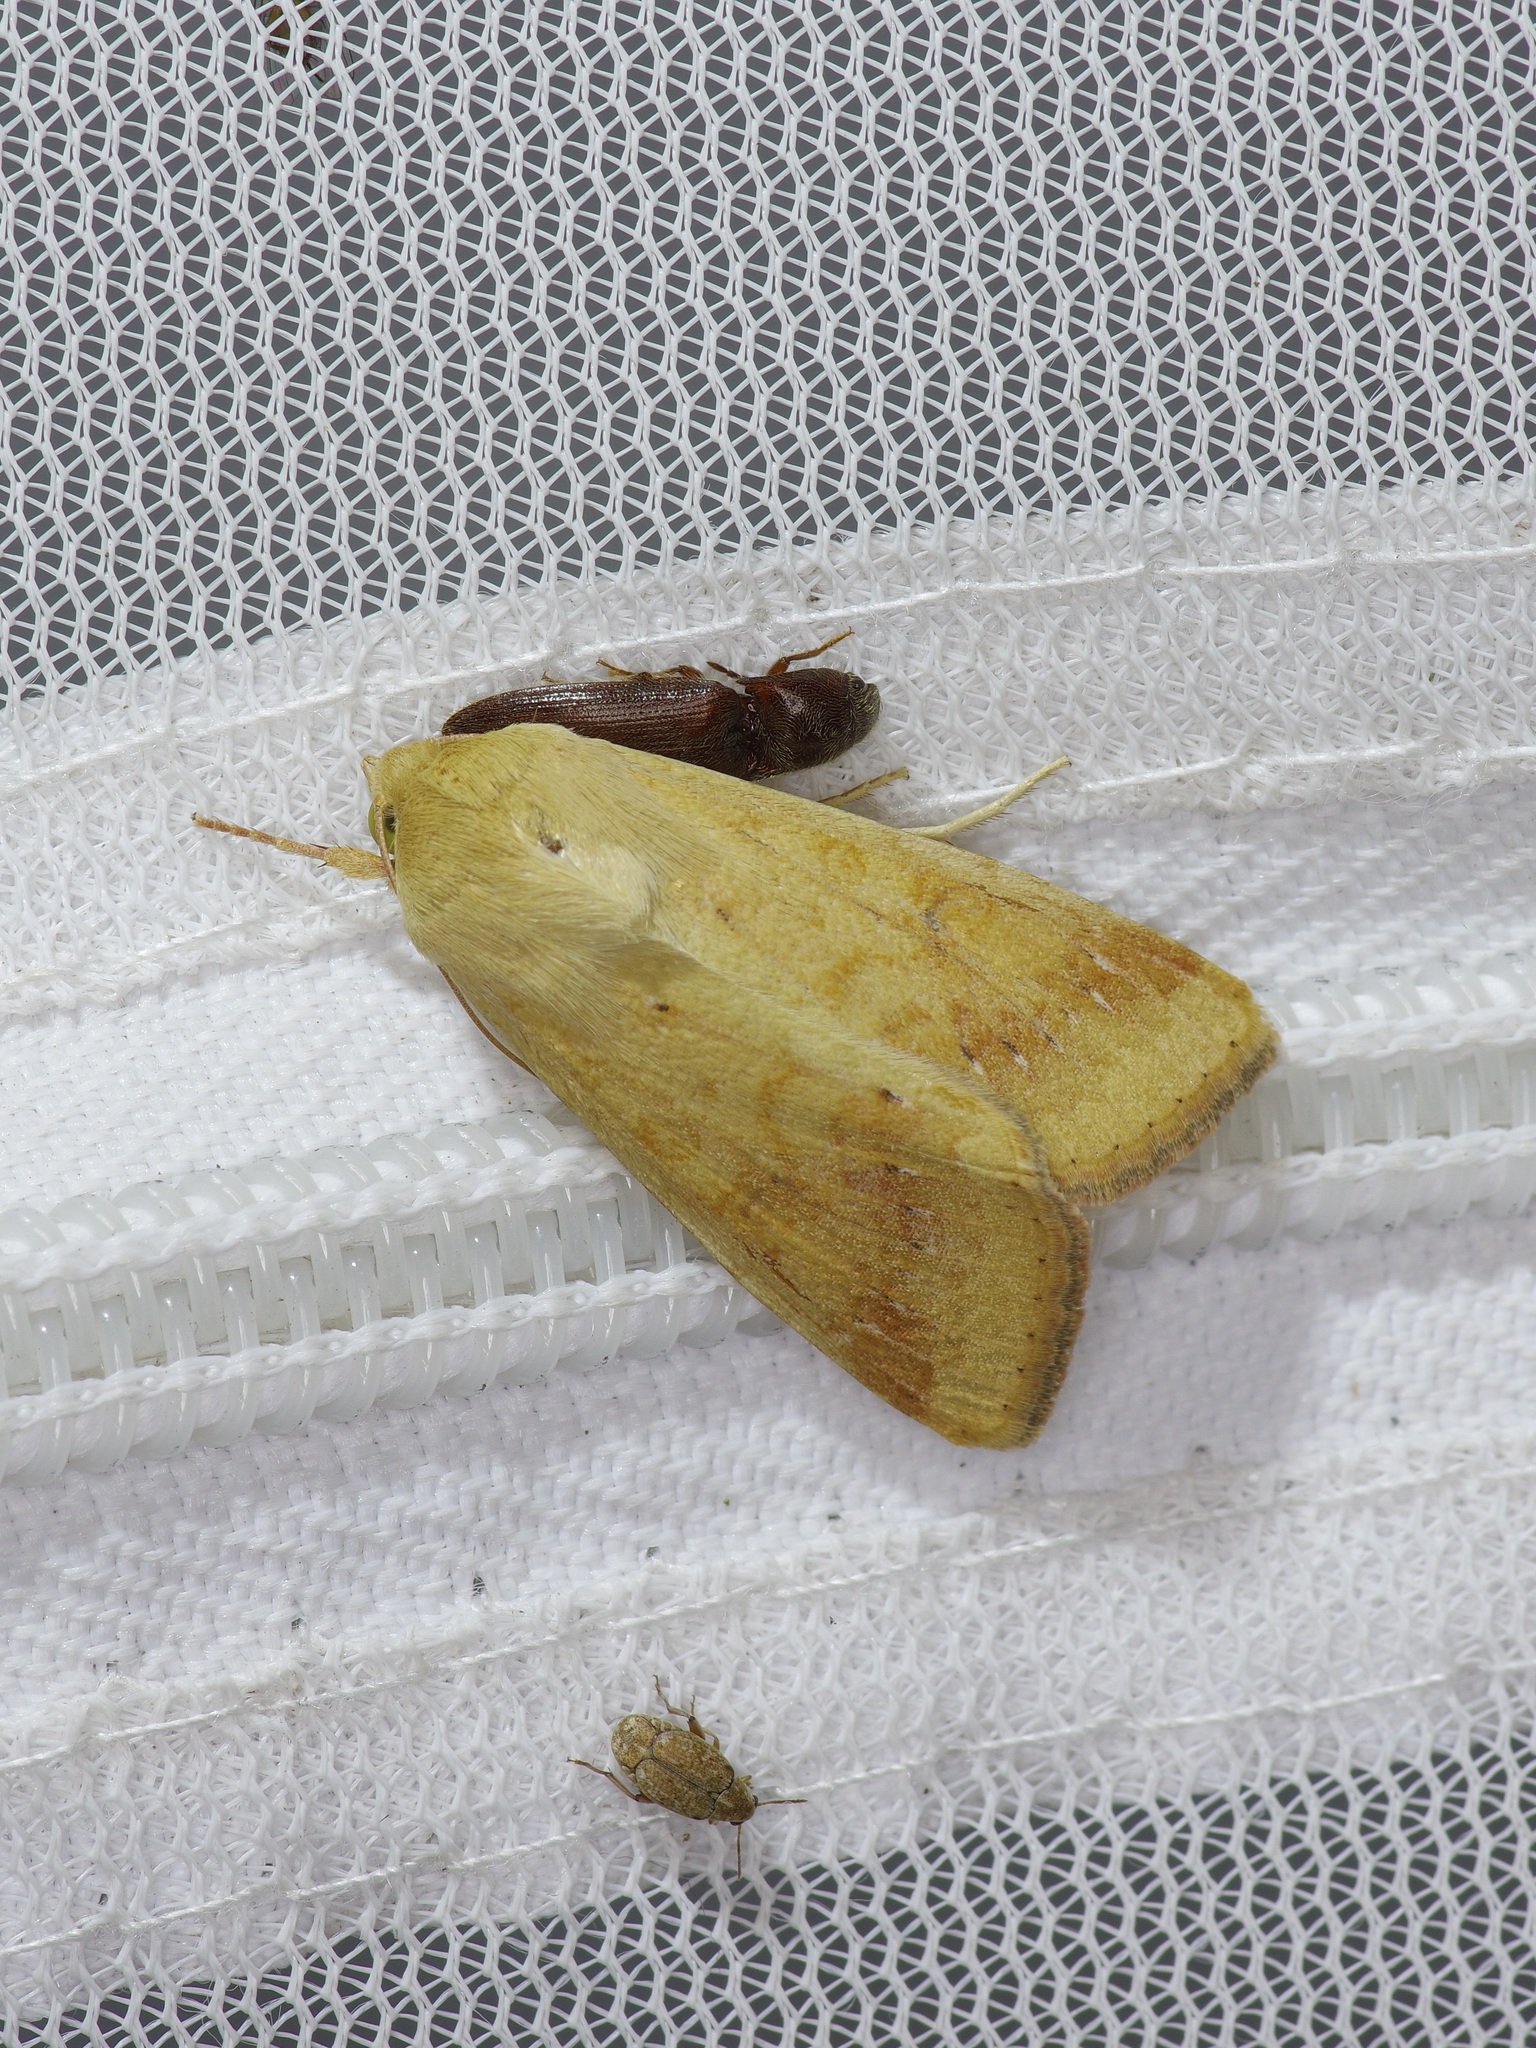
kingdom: Animalia
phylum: Arthropoda
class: Insecta
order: Lepidoptera
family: Noctuidae
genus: Helicoverpa
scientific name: Helicoverpa zea
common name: Bollworm
